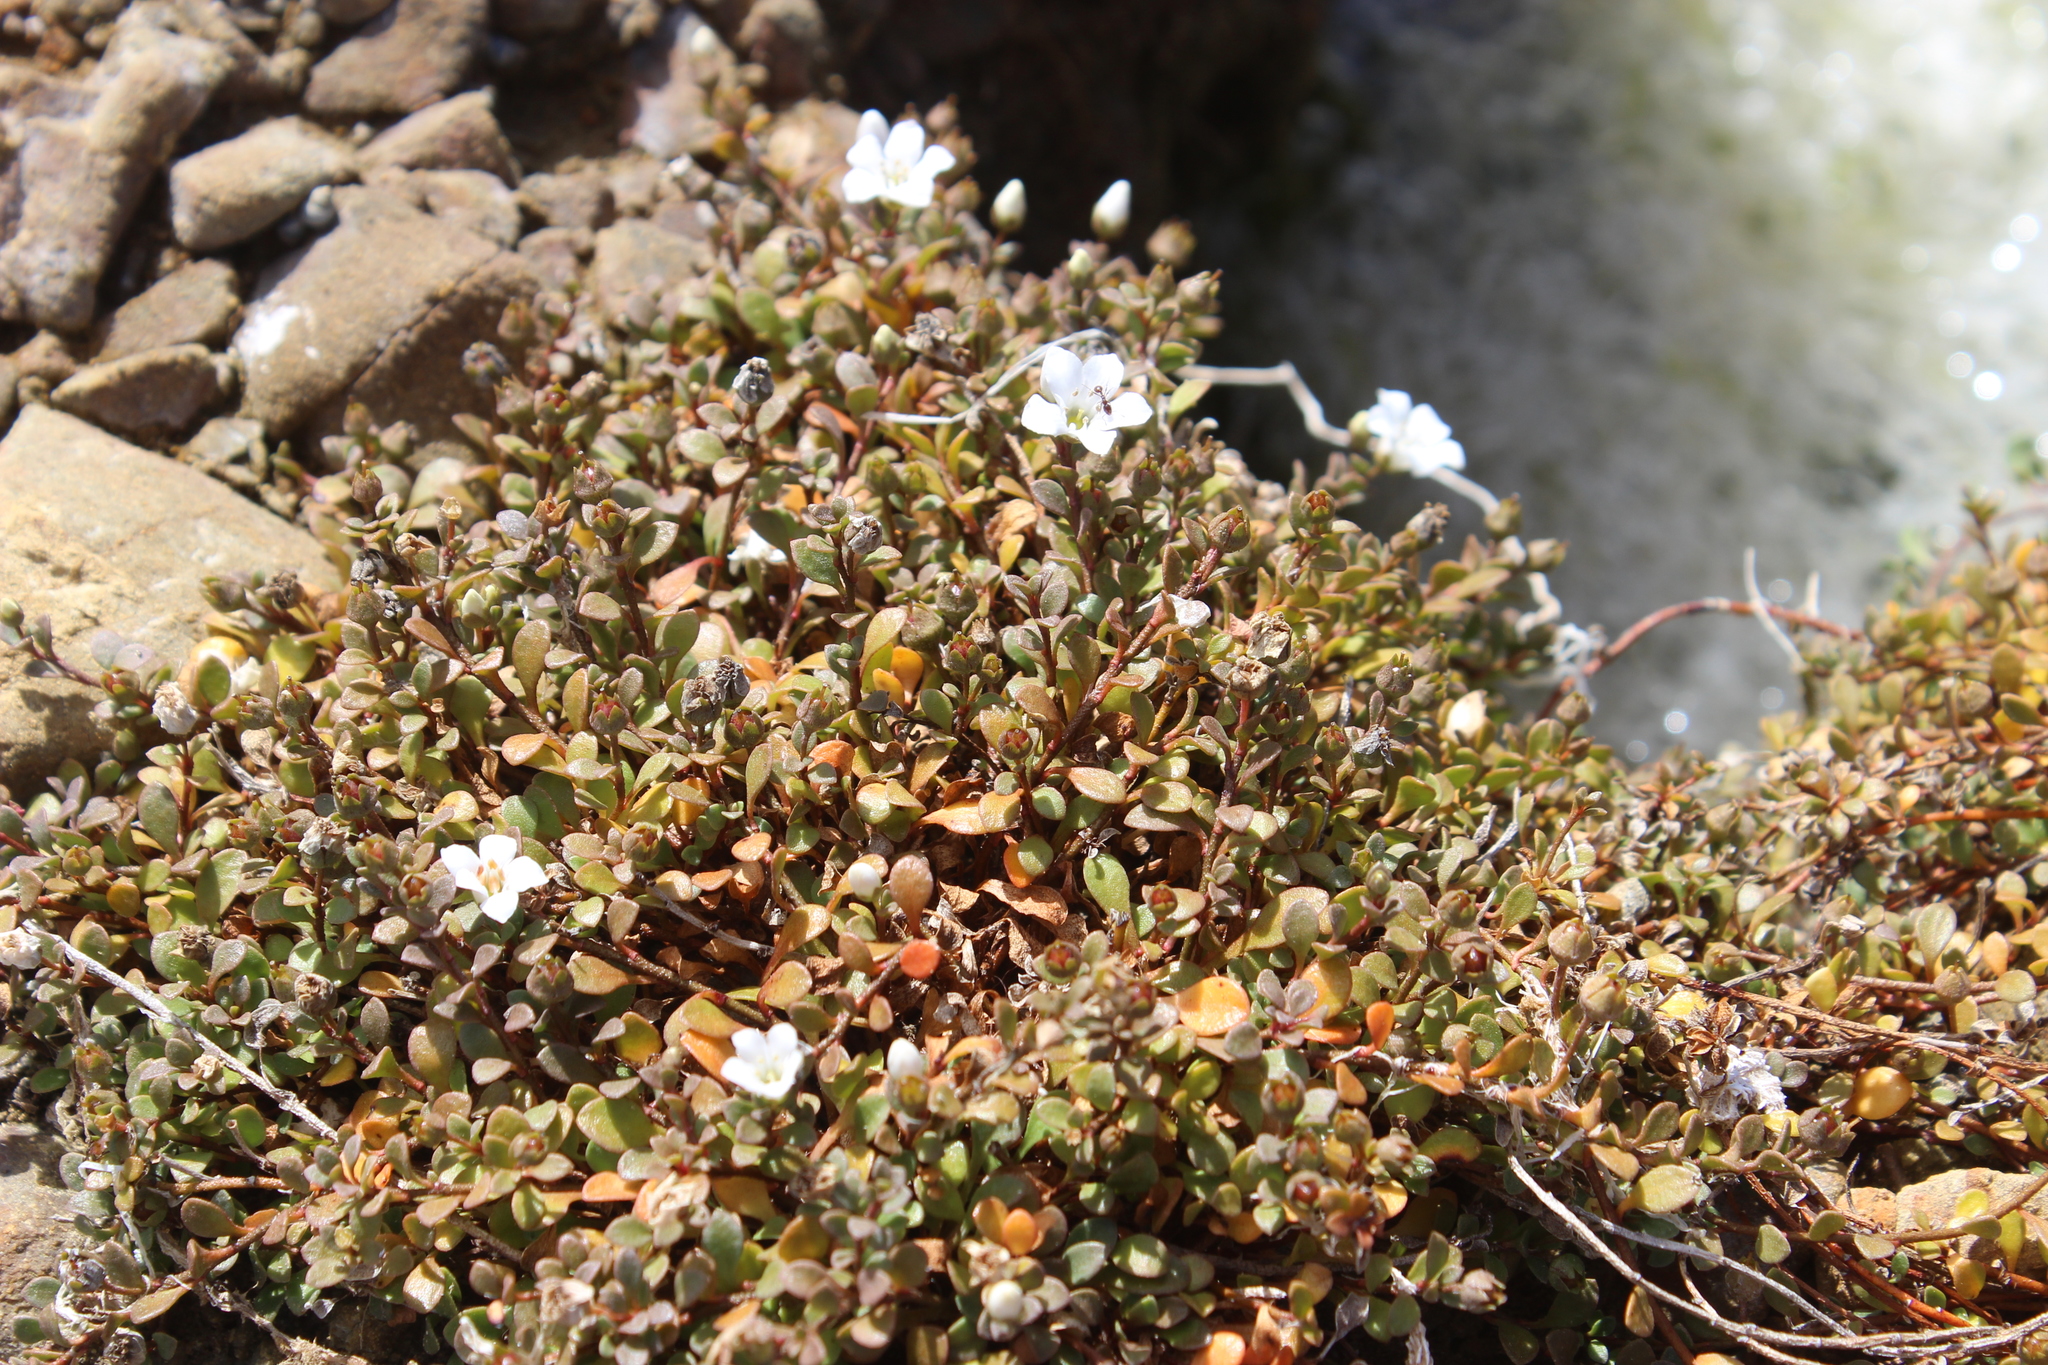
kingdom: Plantae
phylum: Tracheophyta
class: Magnoliopsida
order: Ericales
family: Primulaceae
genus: Samolus
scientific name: Samolus repens
